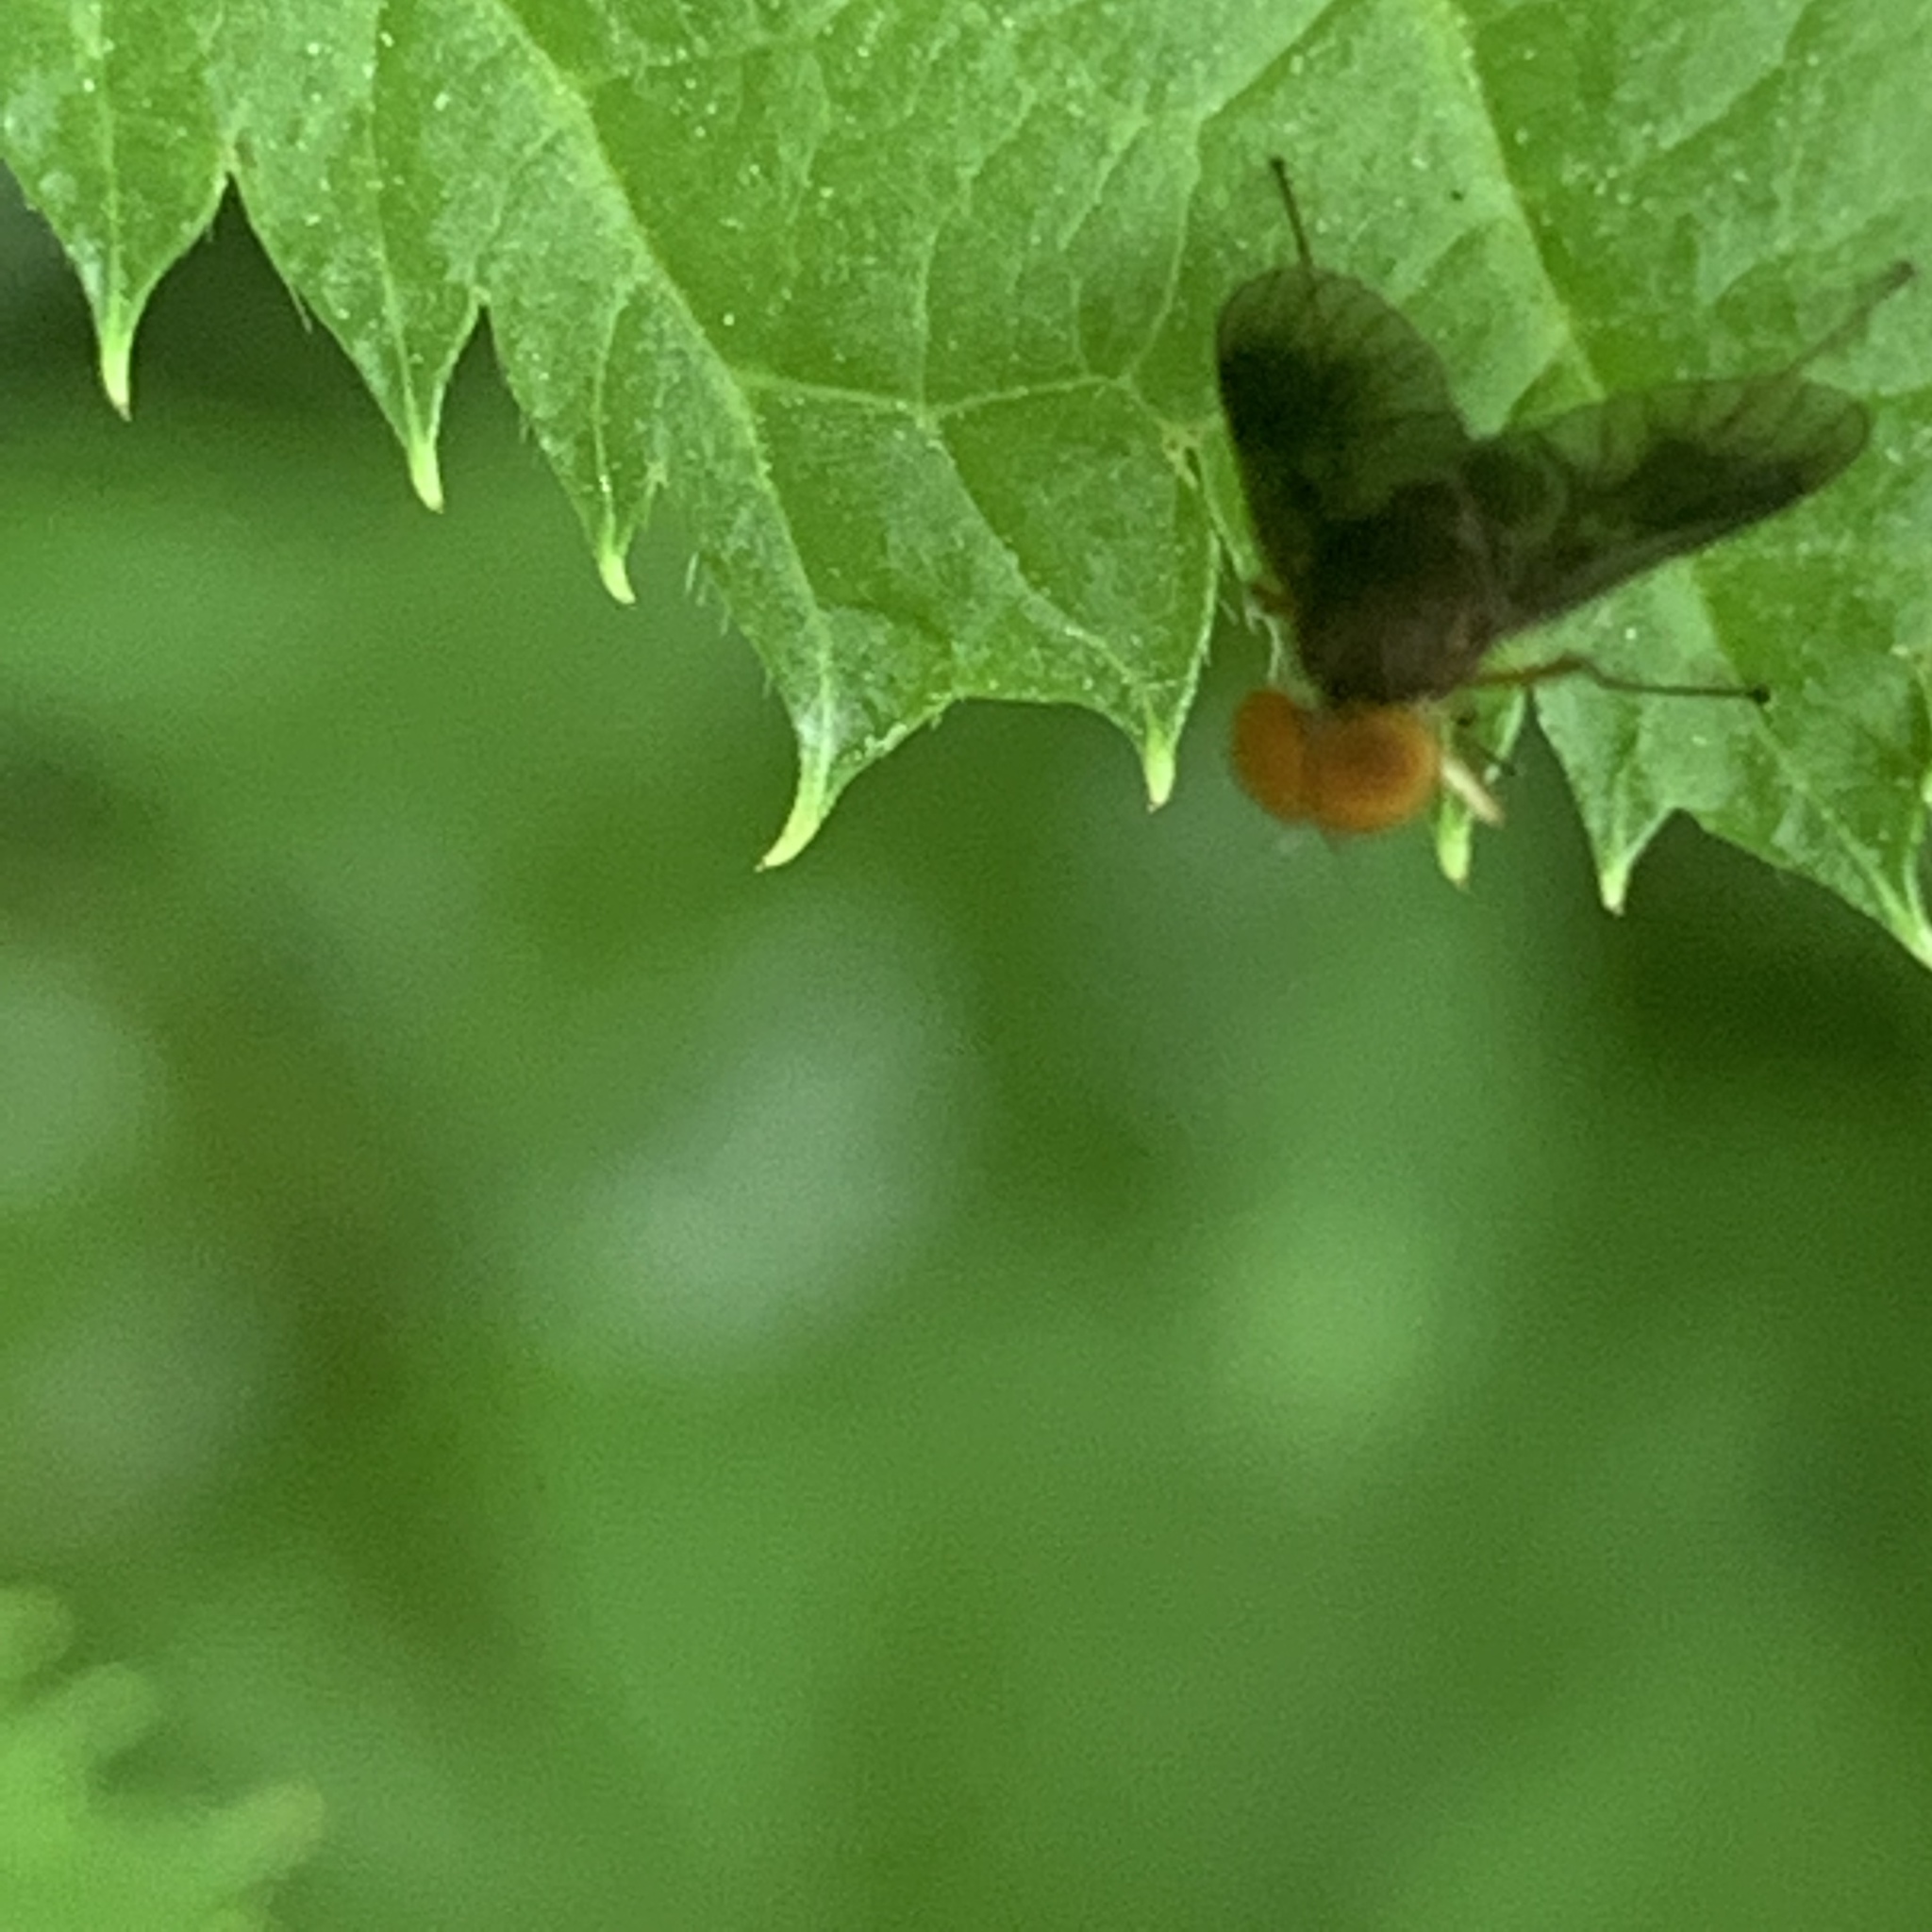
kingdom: Animalia
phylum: Arthropoda
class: Insecta
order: Diptera
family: Rhagionidae
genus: Chrysopilus
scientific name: Chrysopilus quadratus
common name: Quadrate snipe fly
